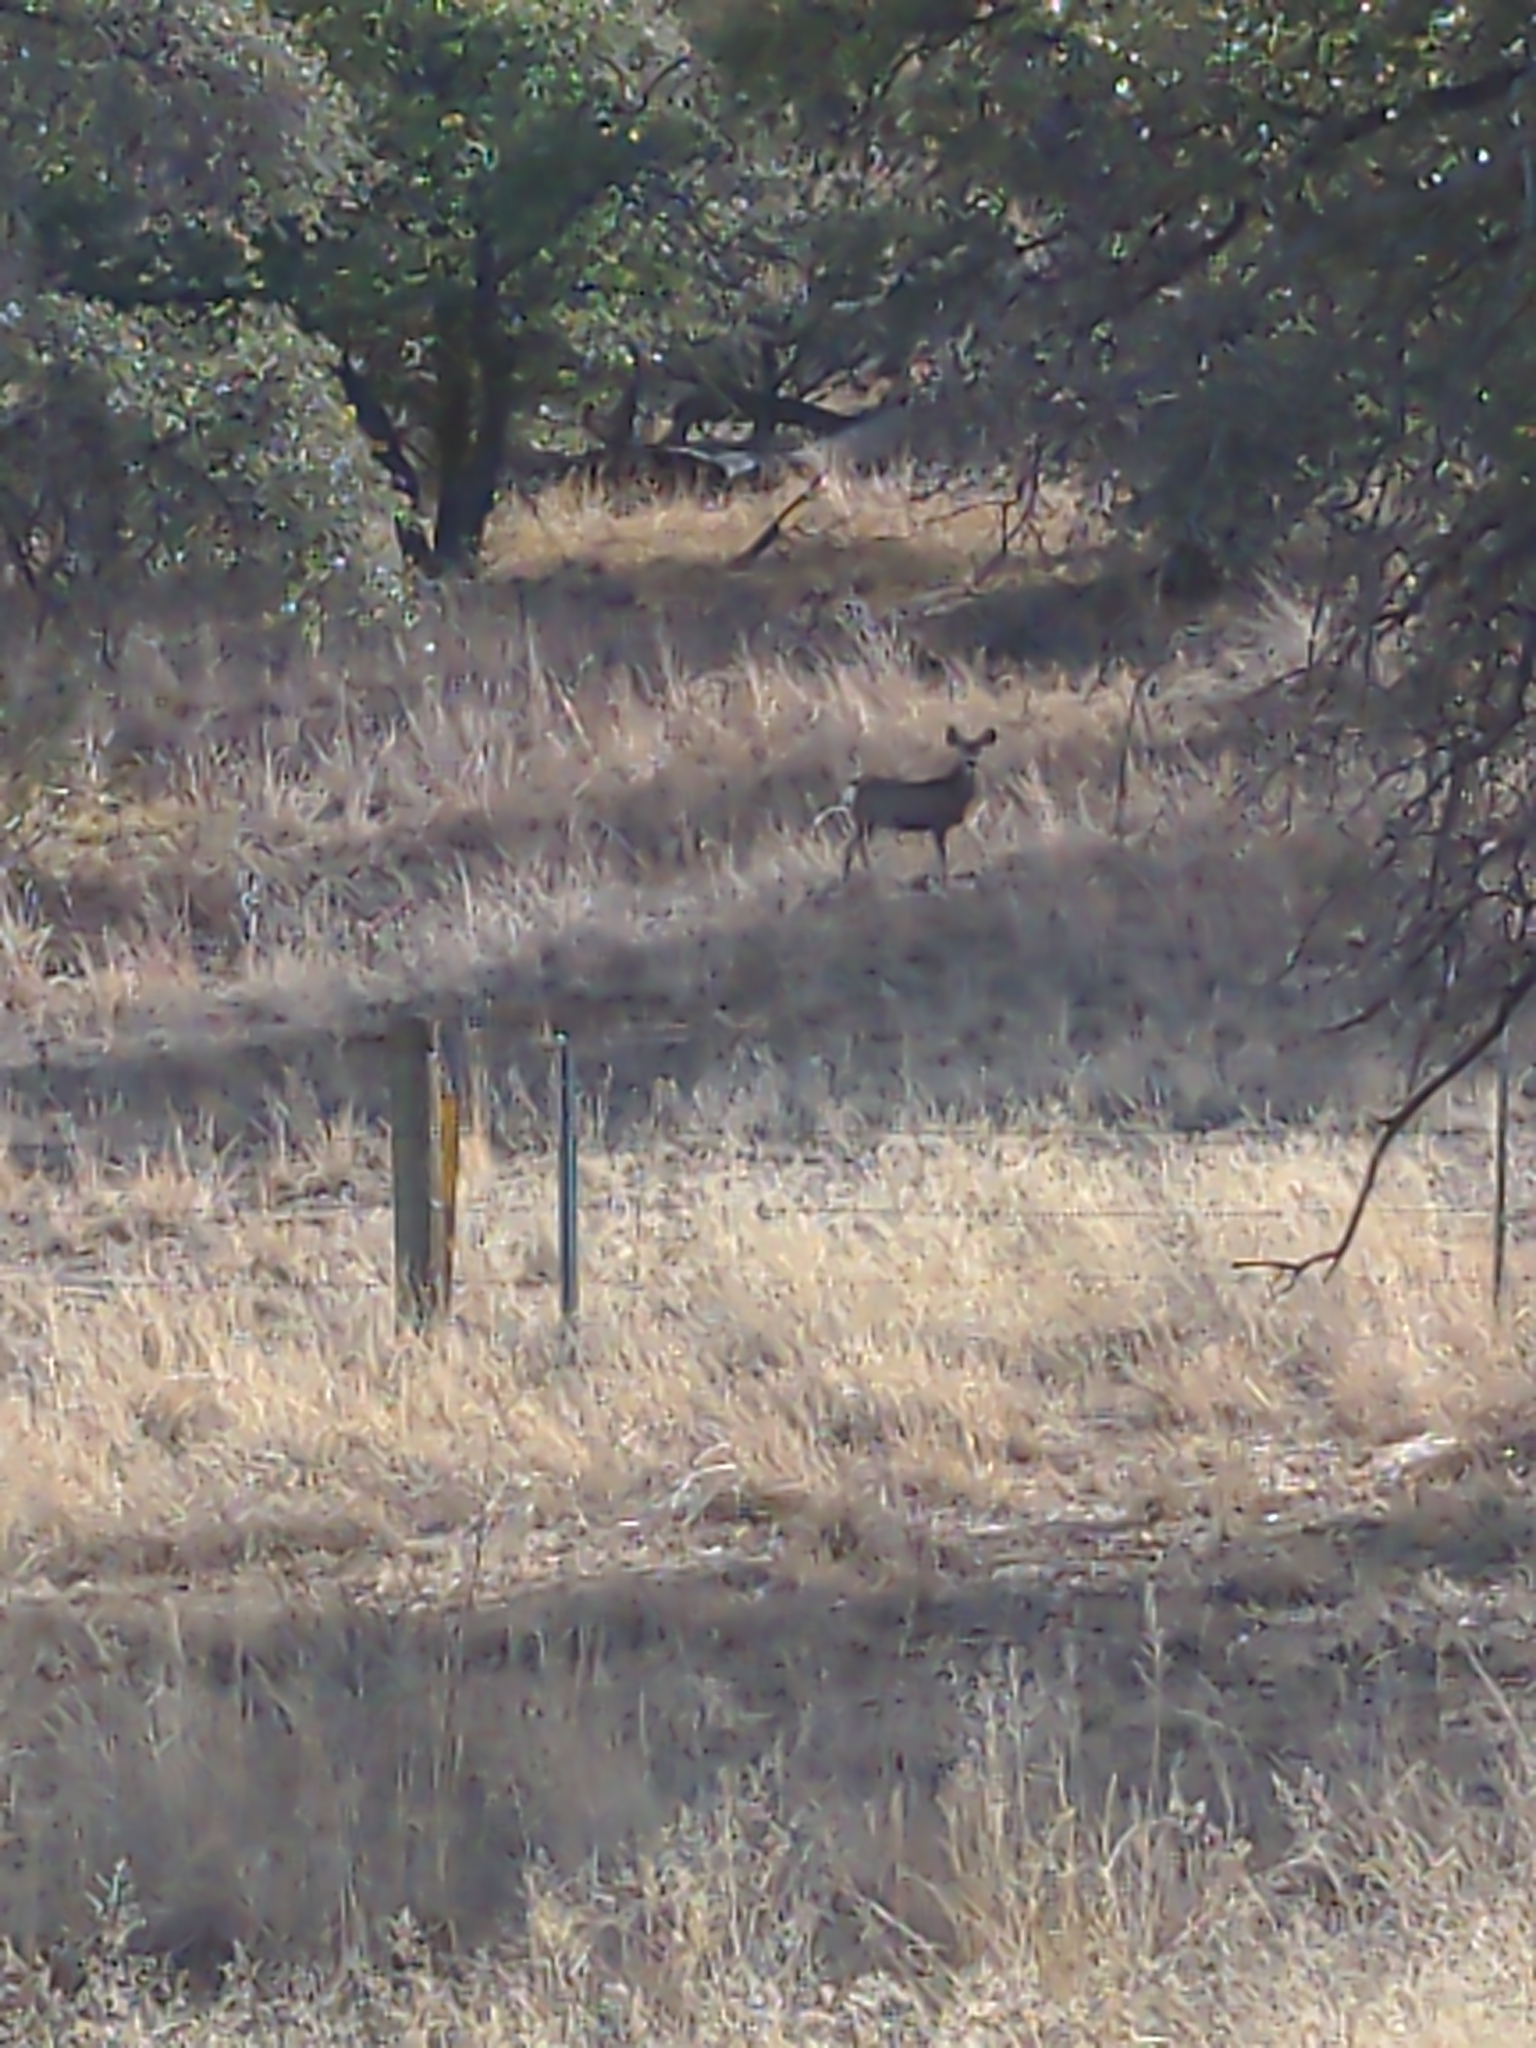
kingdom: Animalia
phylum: Chordata
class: Mammalia
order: Artiodactyla
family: Cervidae
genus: Odocoileus
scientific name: Odocoileus hemionus
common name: Mule deer
